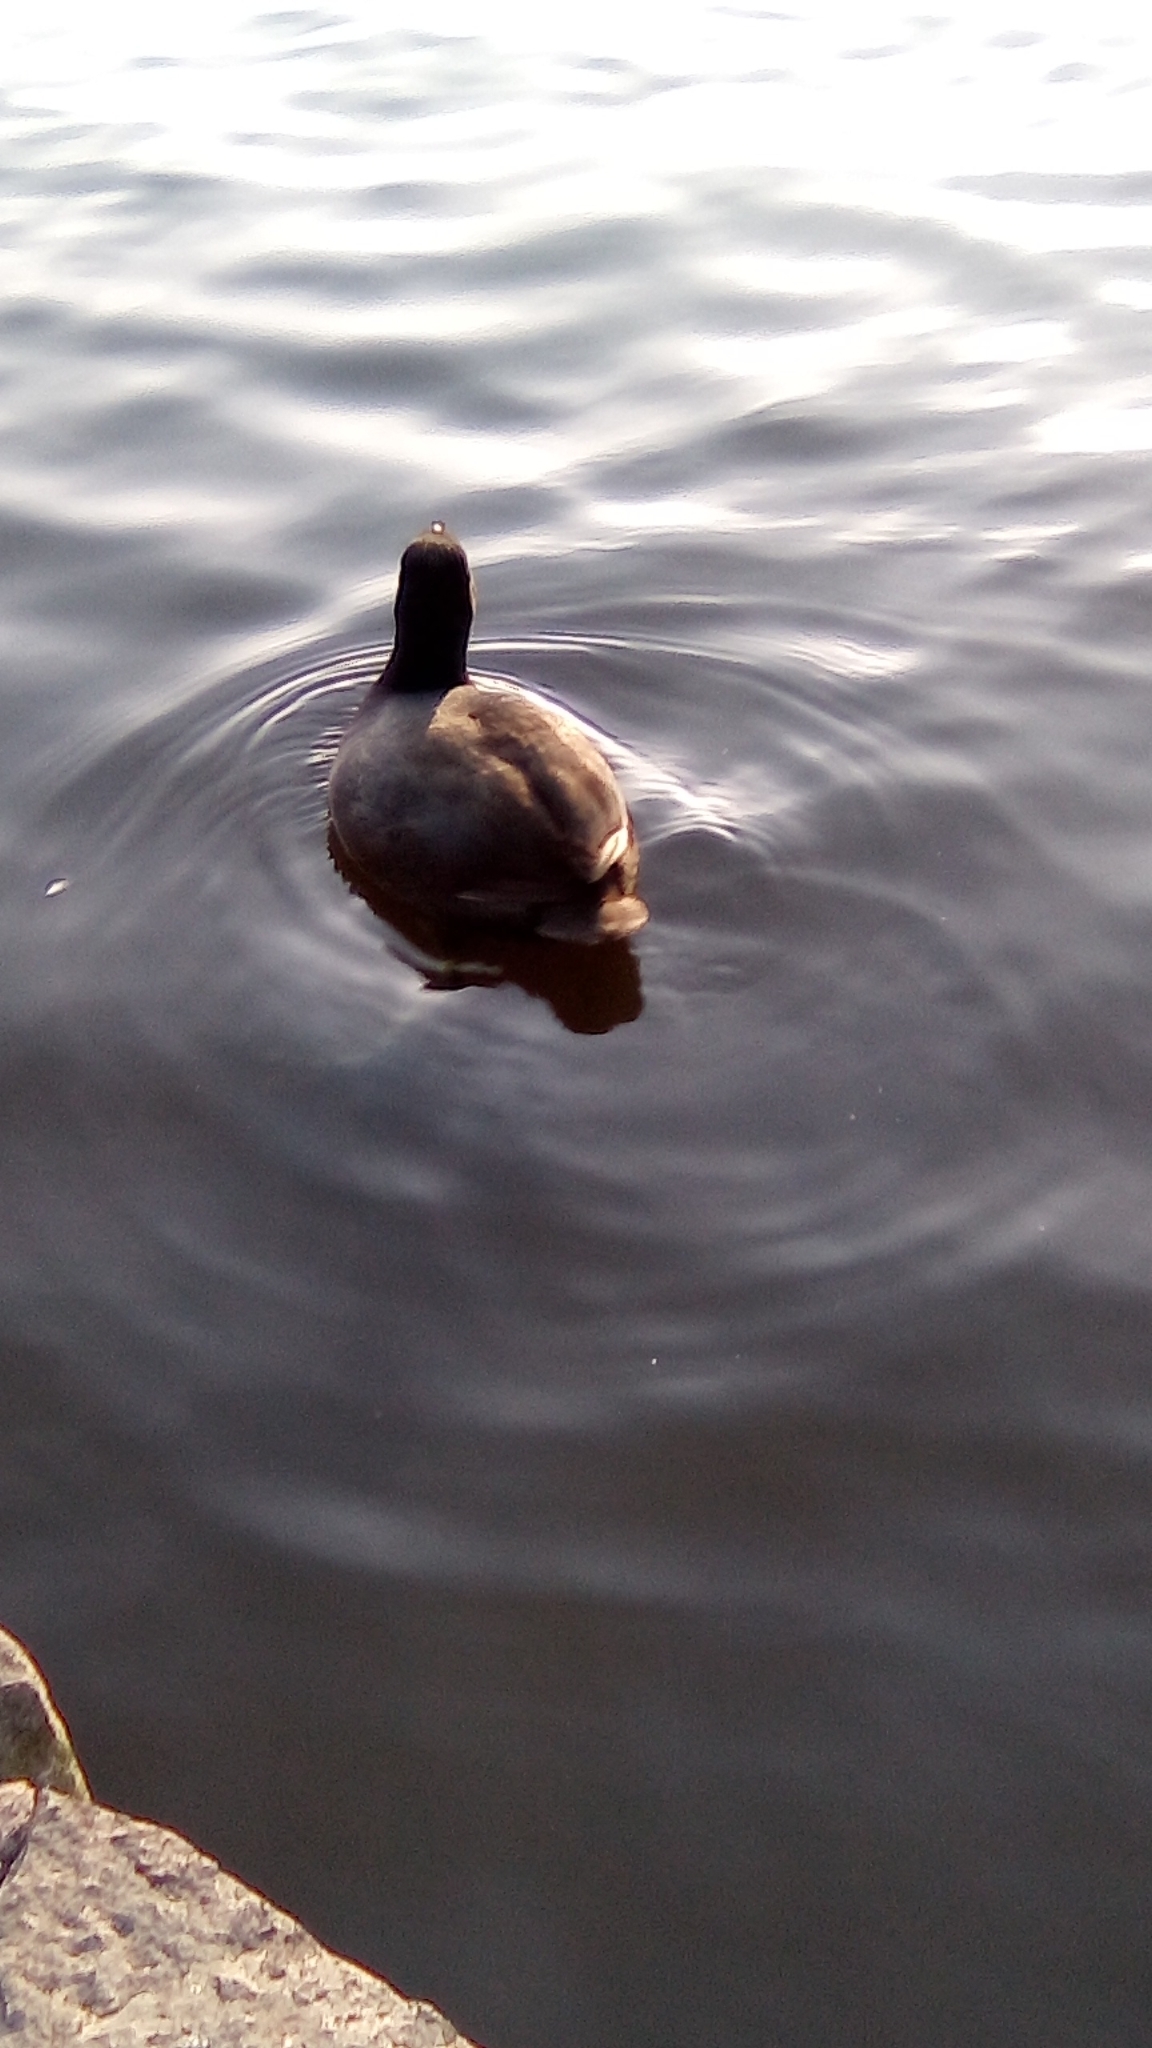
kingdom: Animalia
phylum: Chordata
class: Aves
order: Gruiformes
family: Rallidae
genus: Fulica
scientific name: Fulica americana
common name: American coot
